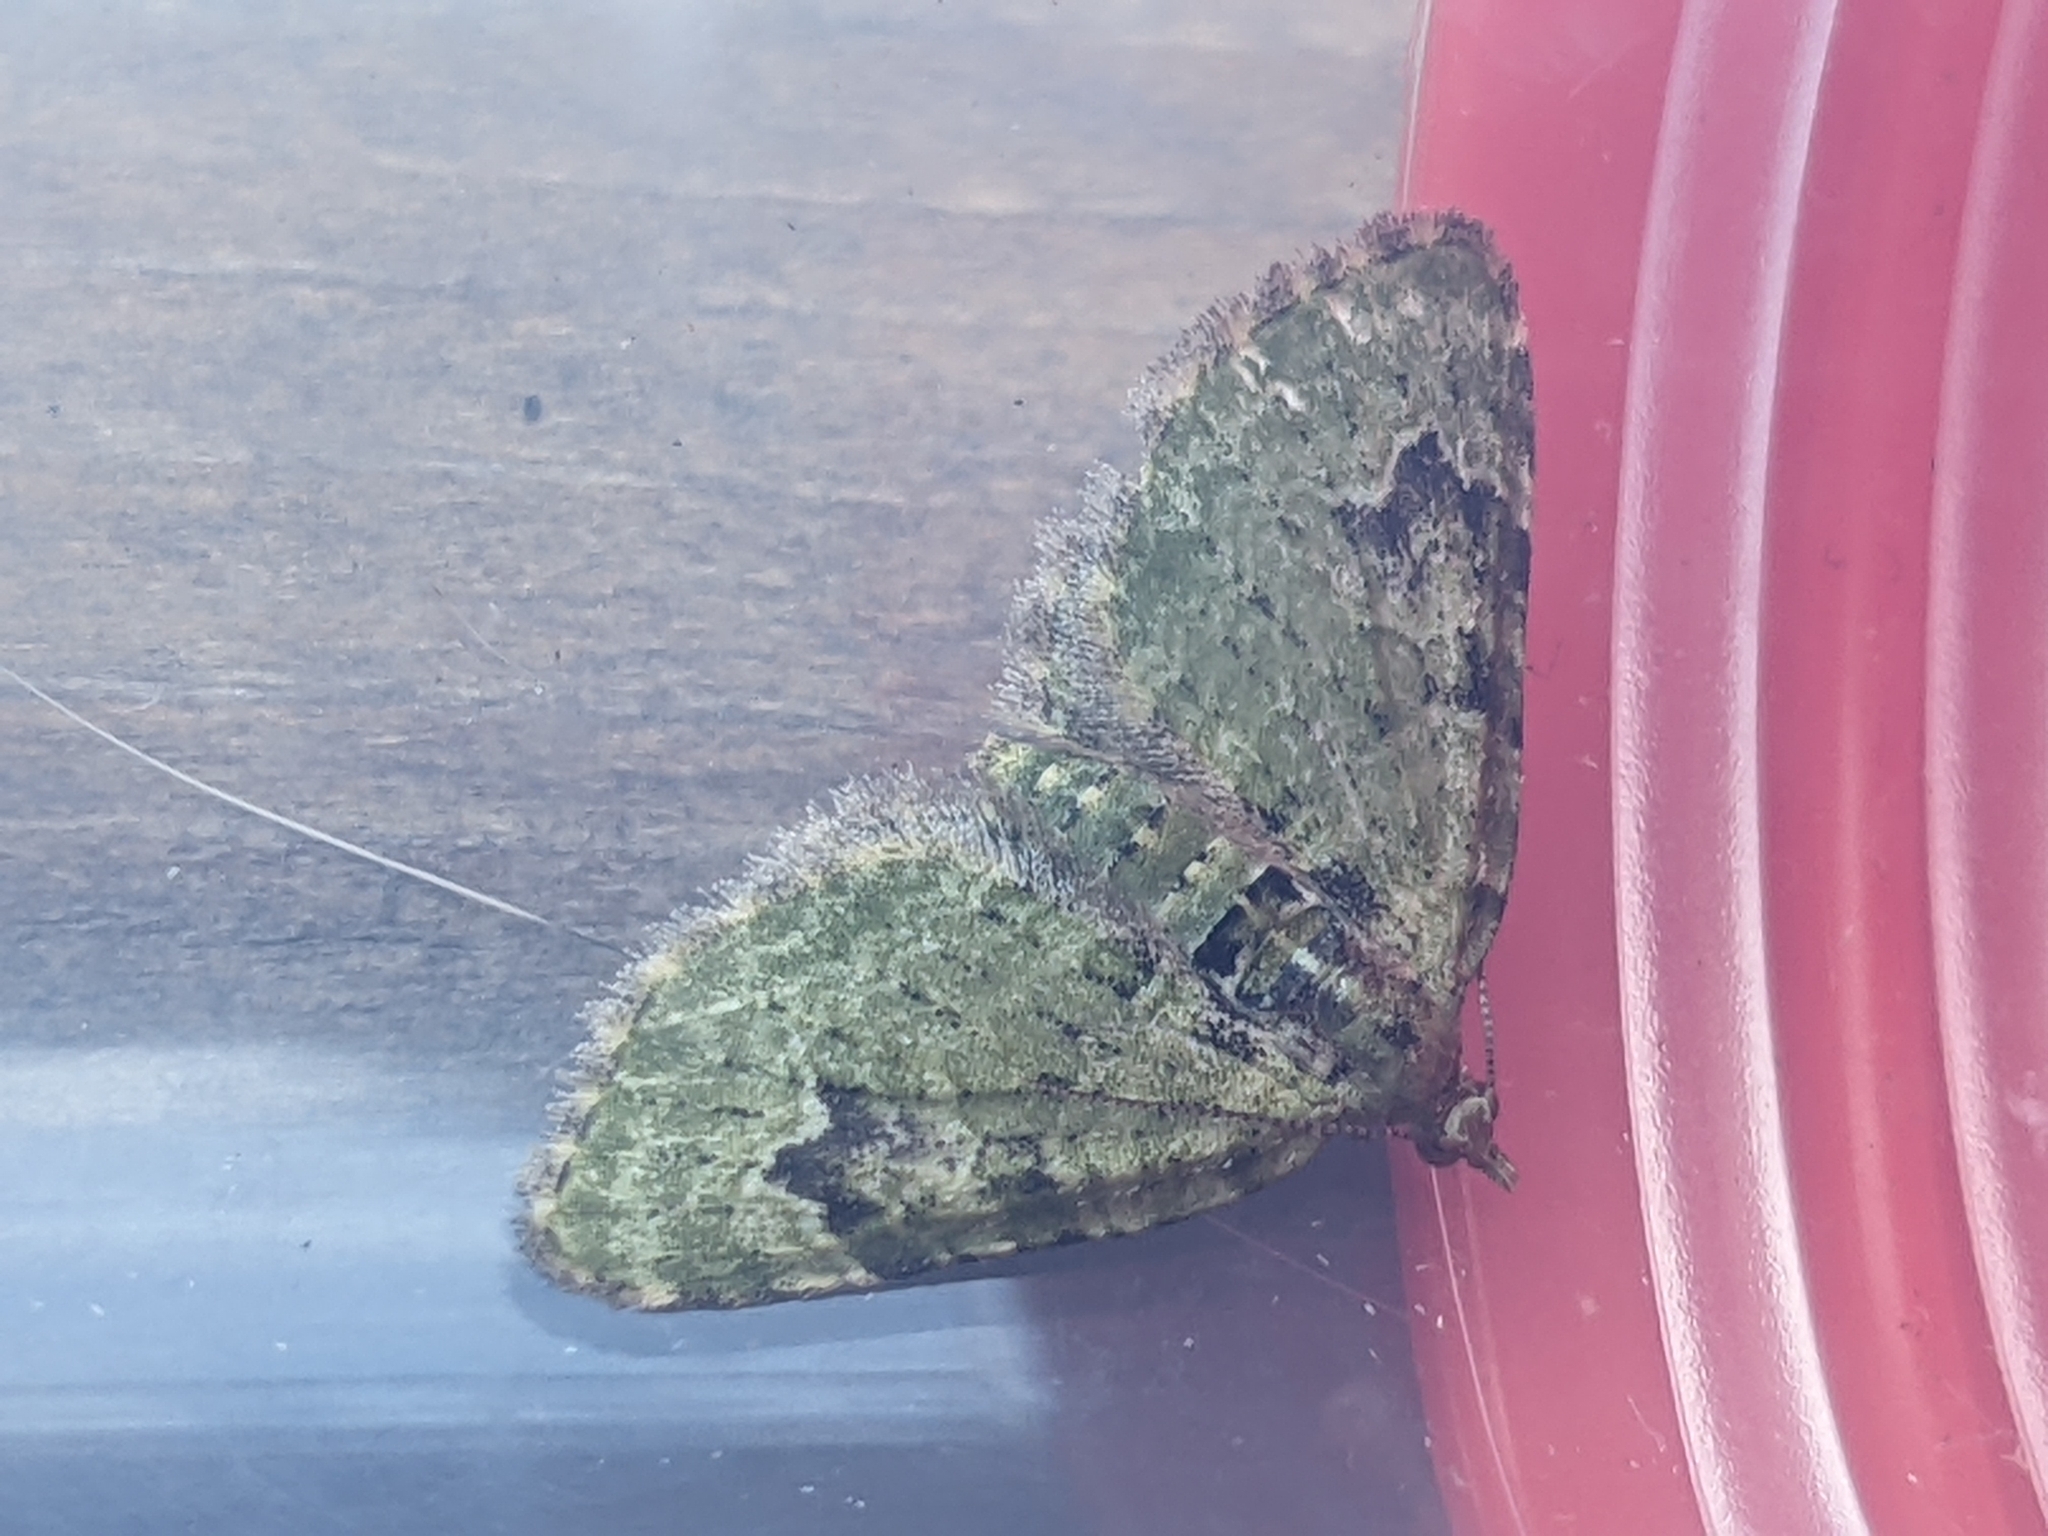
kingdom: Animalia
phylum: Arthropoda
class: Insecta
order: Lepidoptera
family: Geometridae
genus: Chloroclystis
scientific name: Chloroclystis v-ata
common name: V-pug
